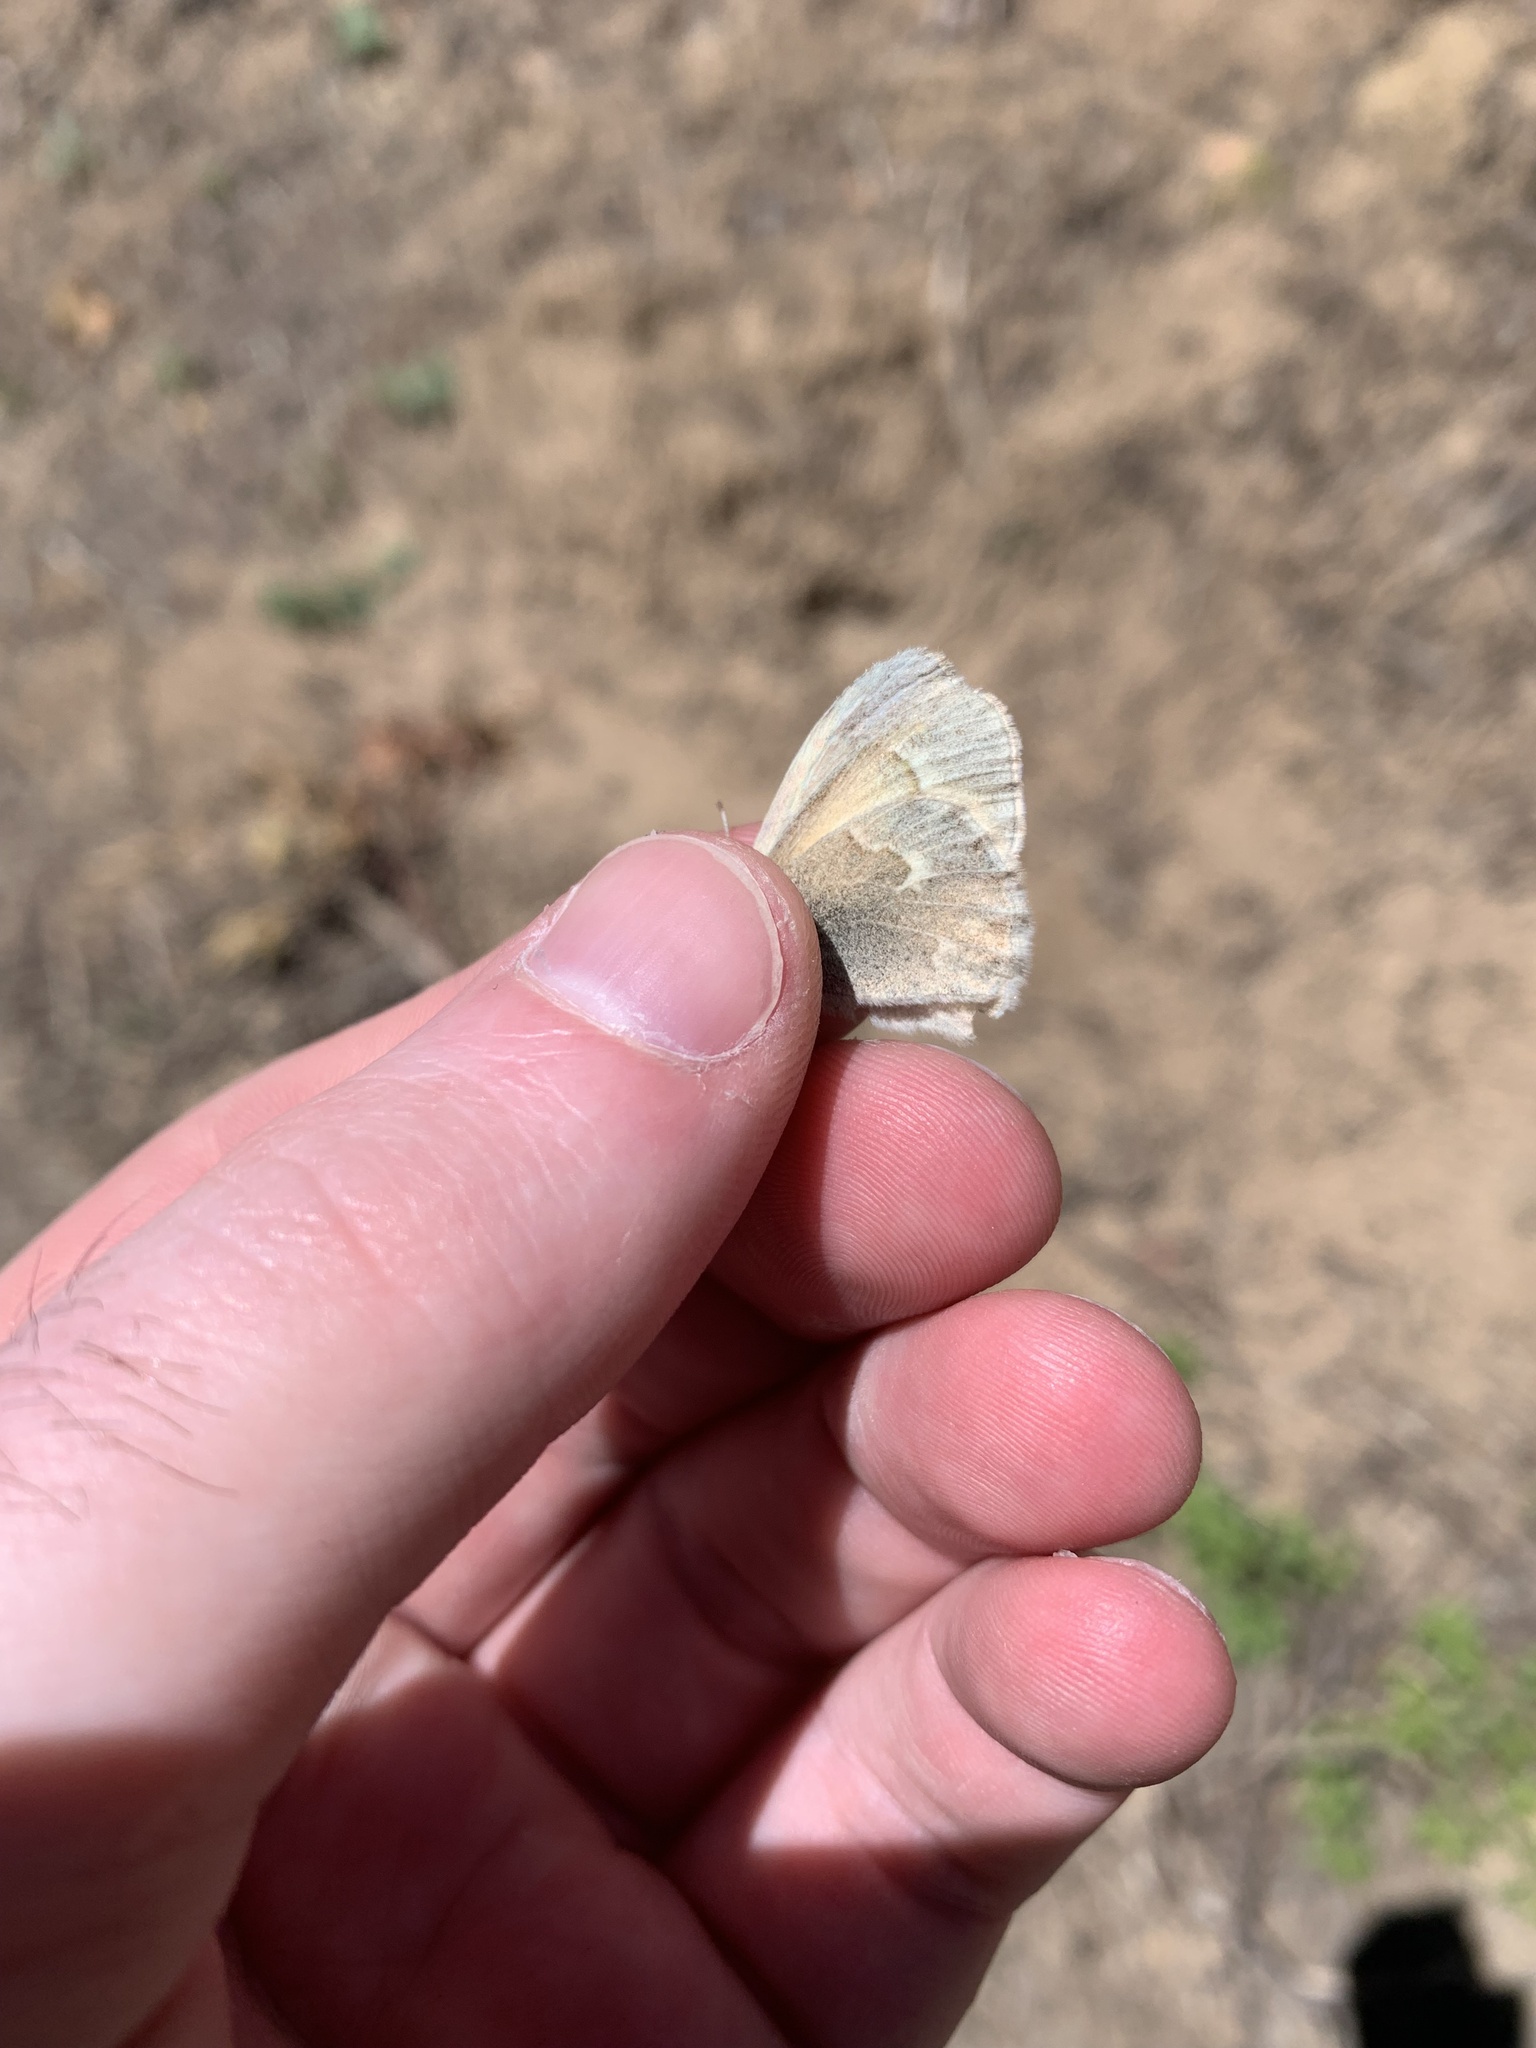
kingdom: Animalia
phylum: Arthropoda
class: Insecta
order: Lepidoptera
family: Nymphalidae
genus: Coenonympha
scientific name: Coenonympha california
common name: Common ringlet
